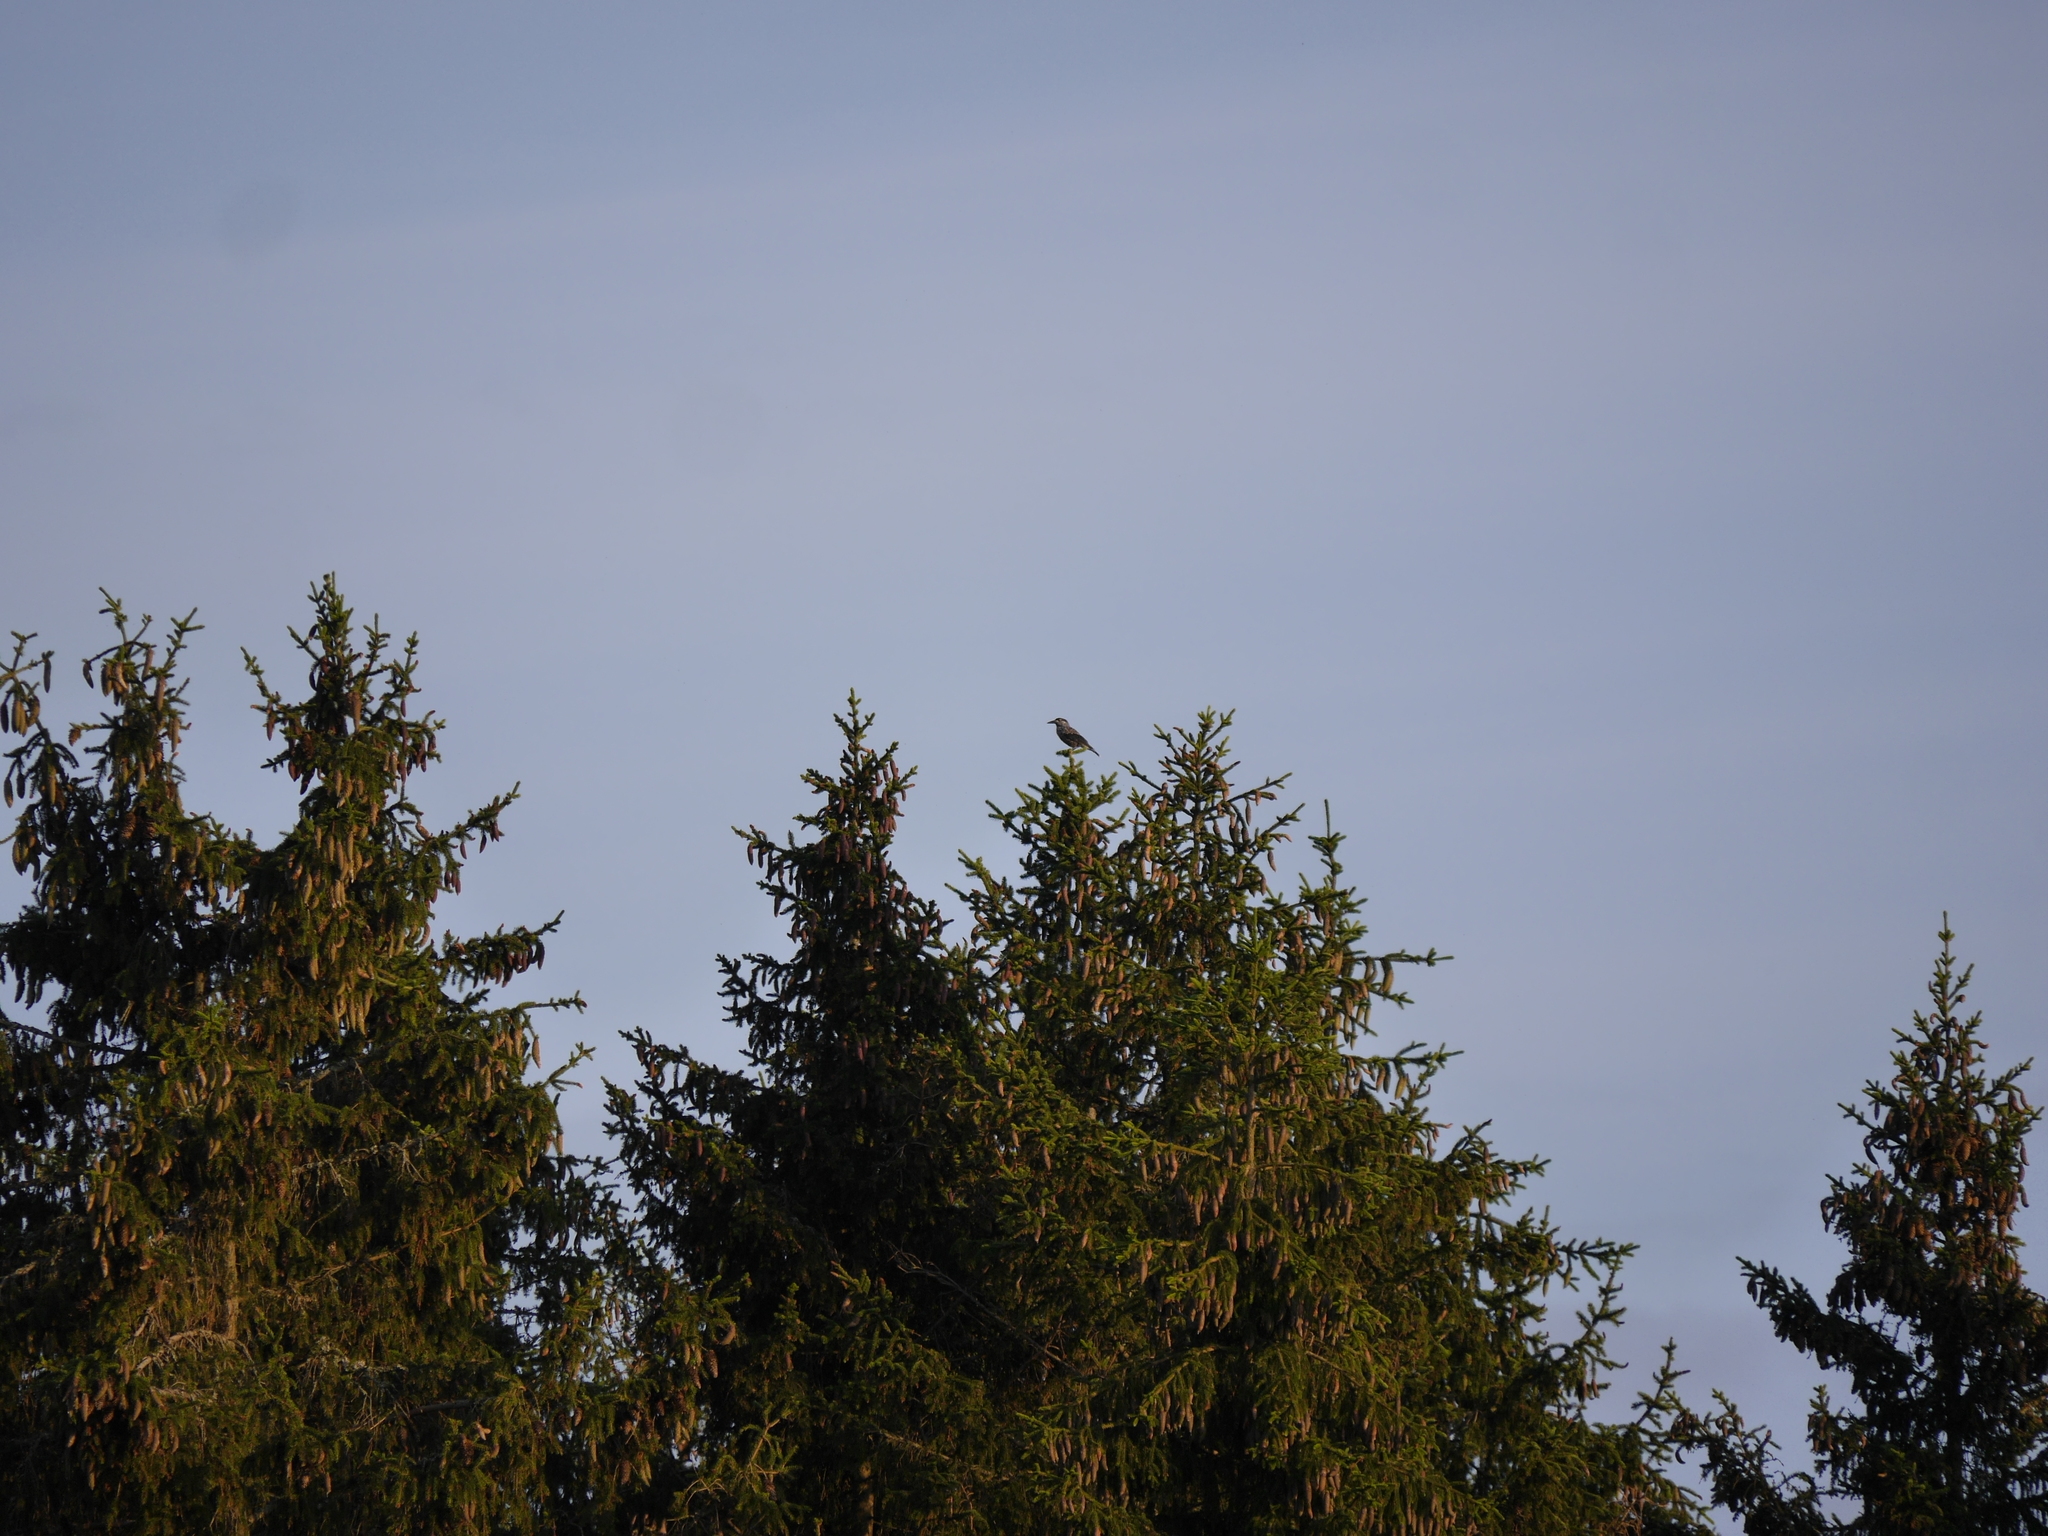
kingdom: Animalia
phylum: Chordata
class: Aves
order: Passeriformes
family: Corvidae
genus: Nucifraga
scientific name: Nucifraga caryocatactes
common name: Spotted nutcracker
